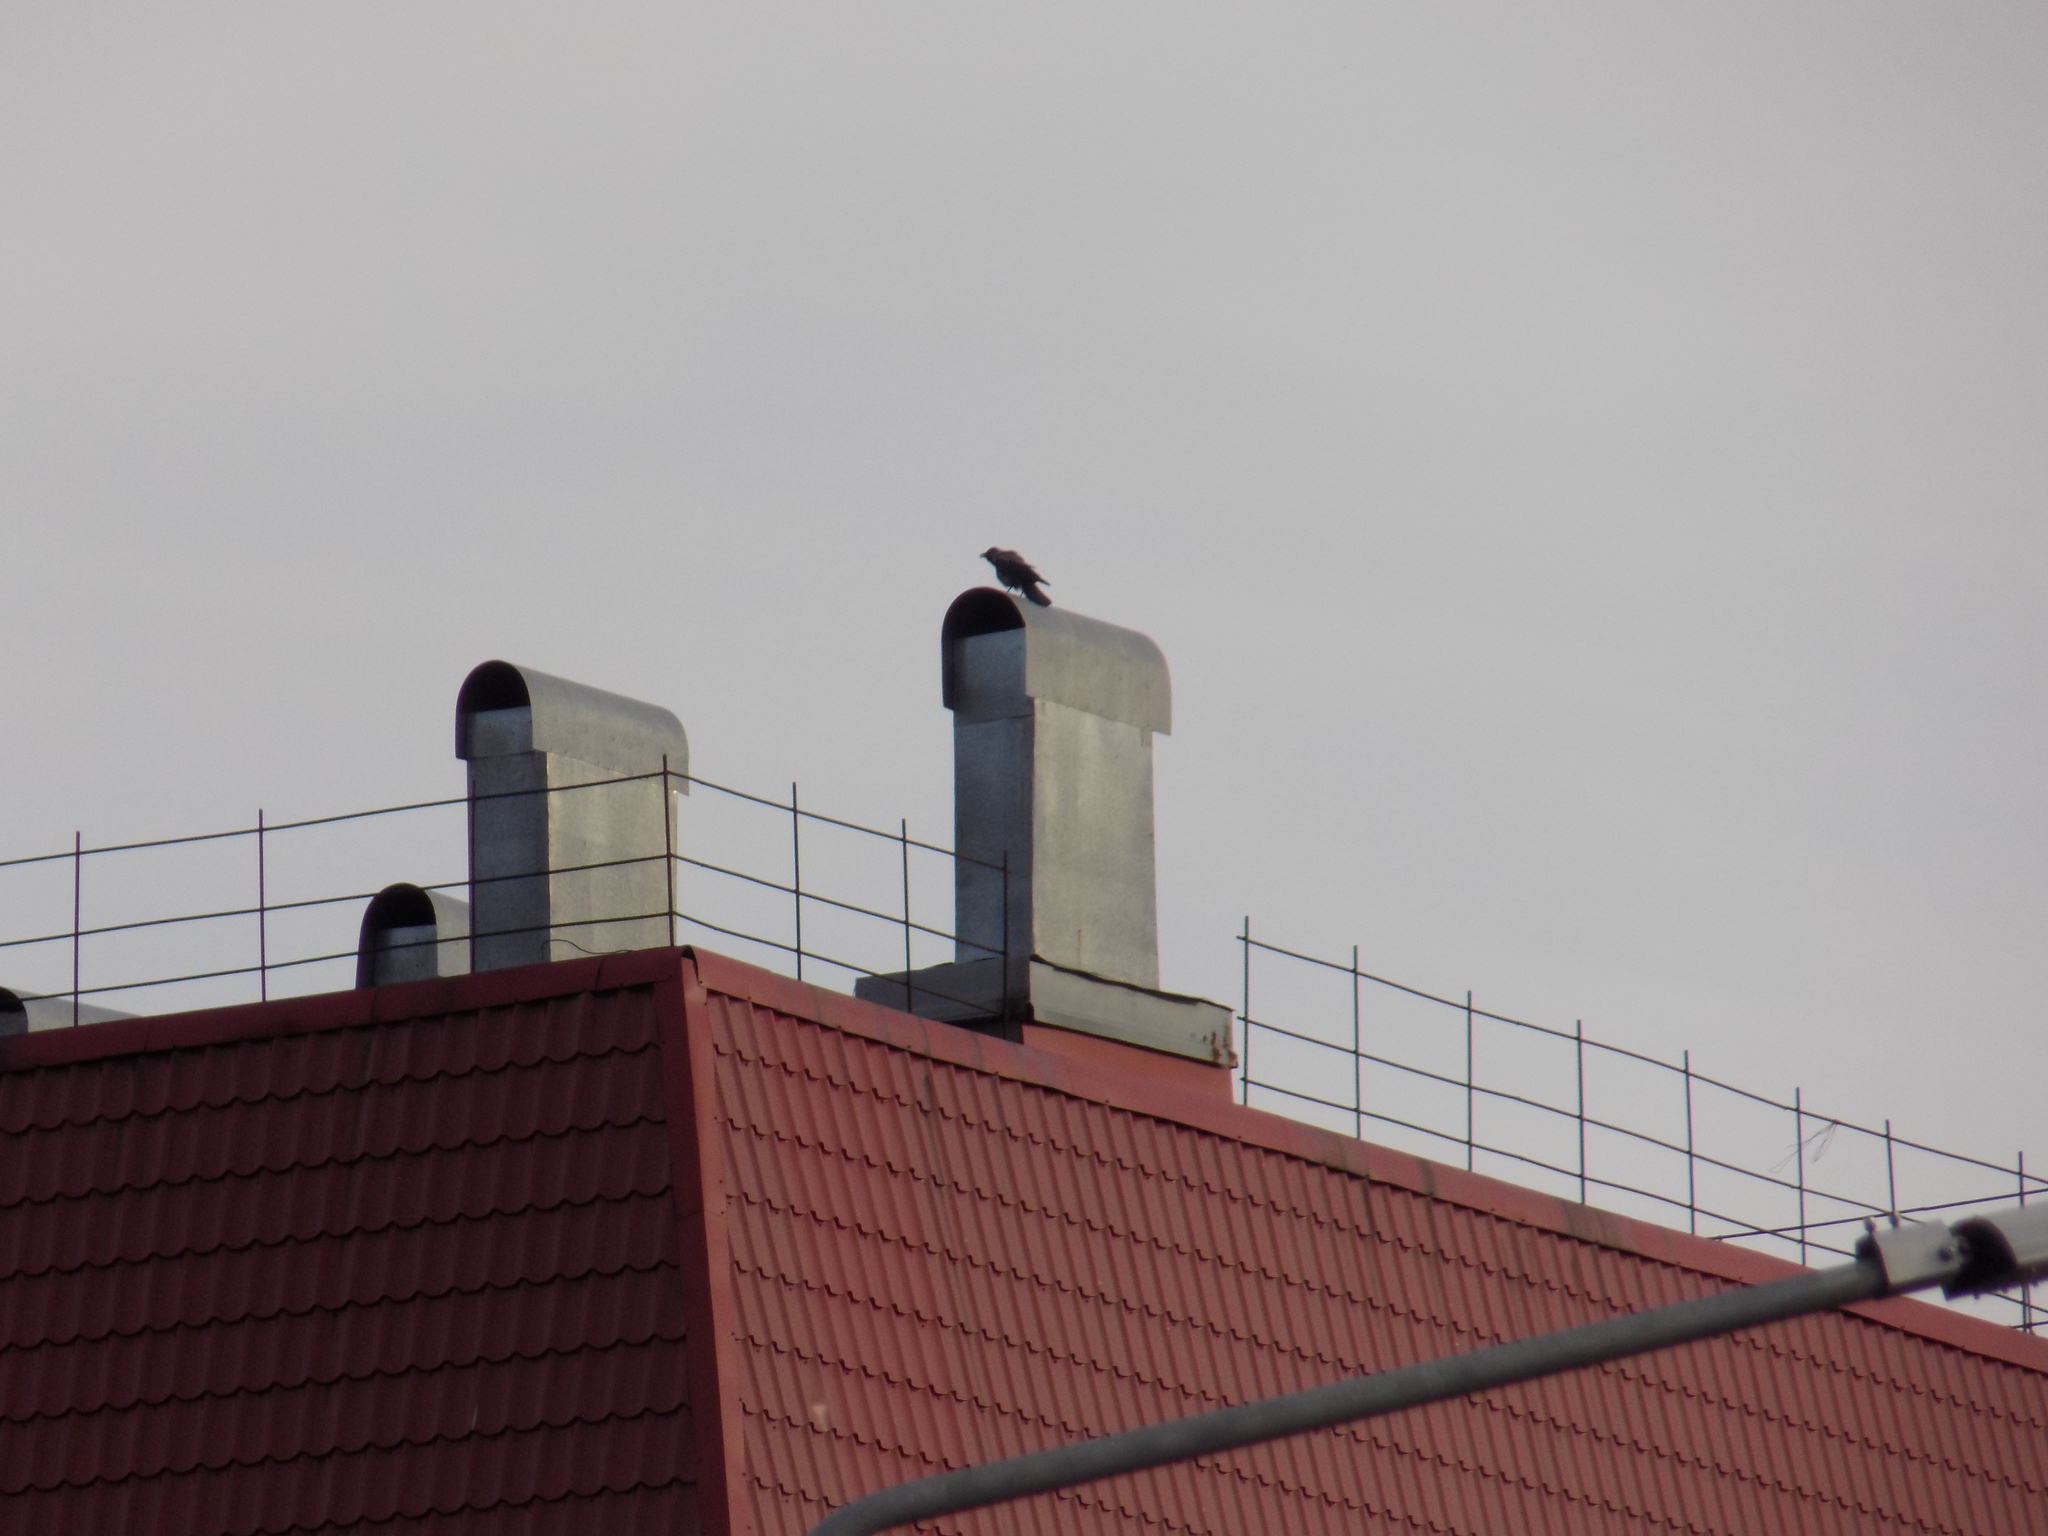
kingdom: Animalia
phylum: Chordata
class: Aves
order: Passeriformes
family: Corvidae
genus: Corvus
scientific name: Corvus cornix
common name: Hooded crow
